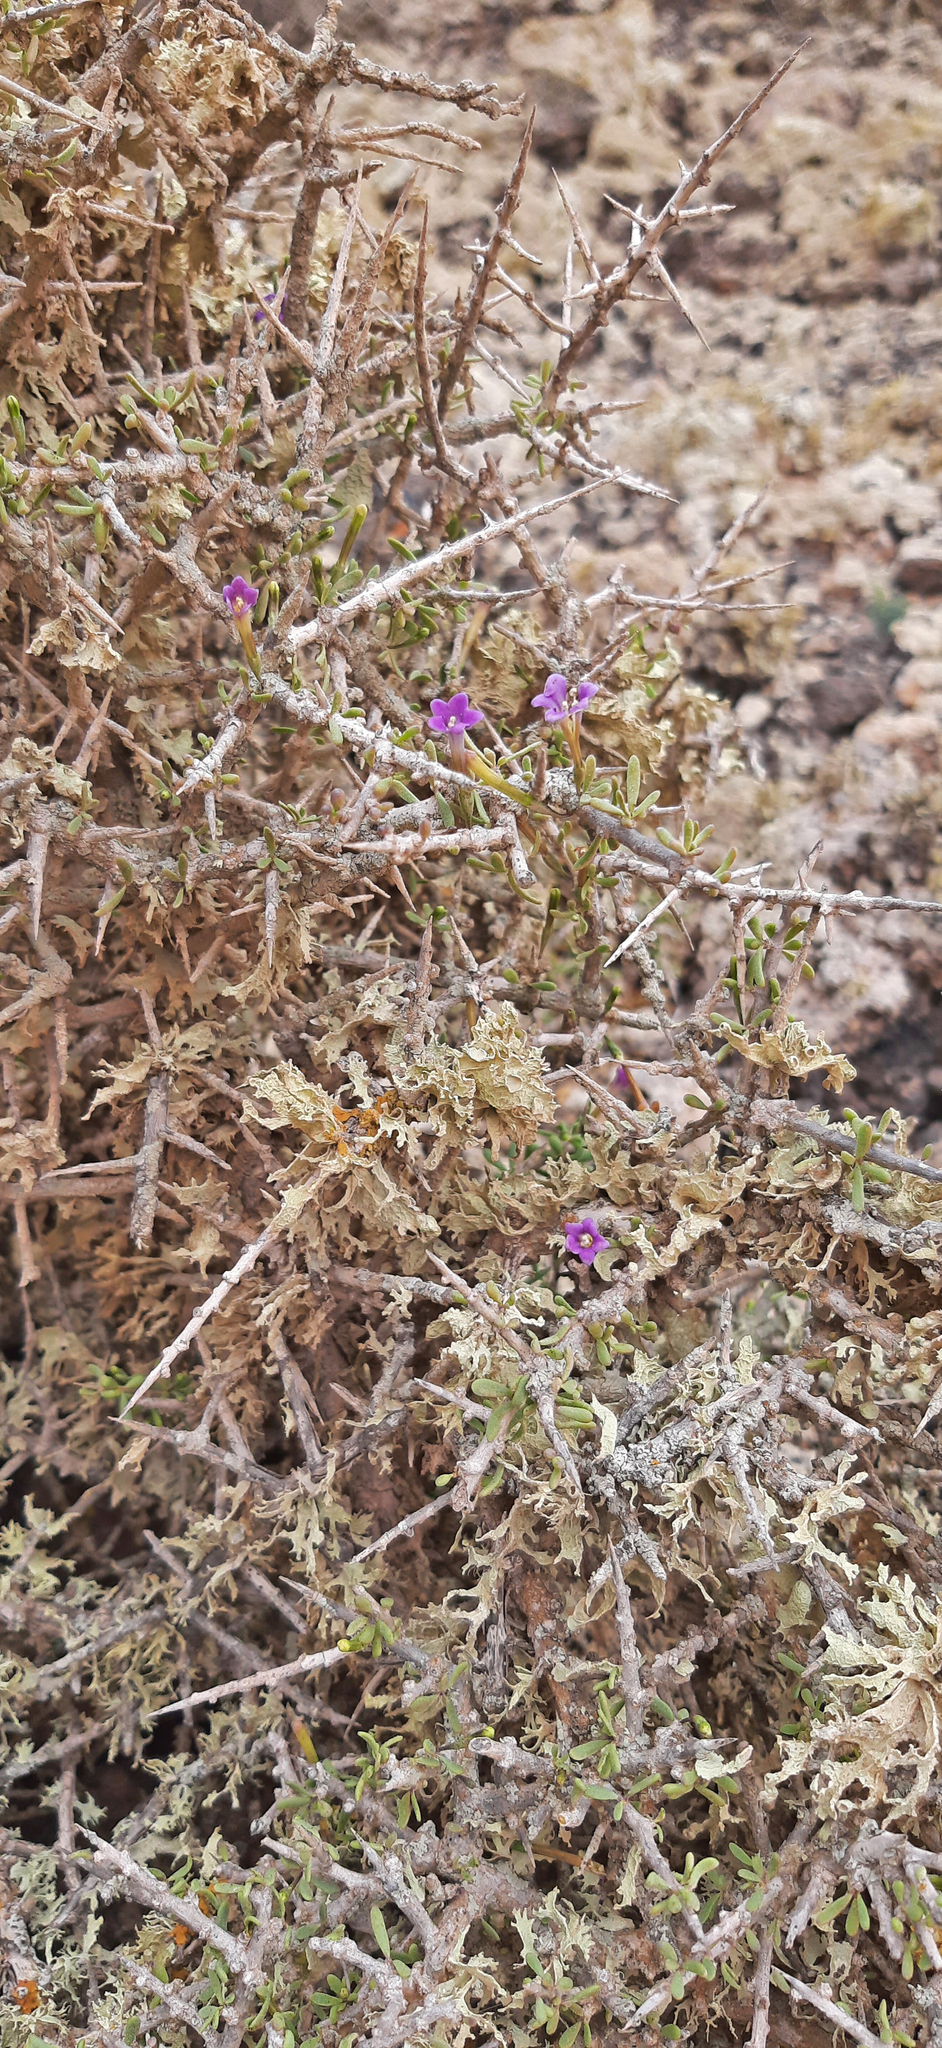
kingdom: Plantae
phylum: Tracheophyta
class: Magnoliopsida
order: Solanales
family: Solanaceae
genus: Lycium
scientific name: Lycium intricatum
